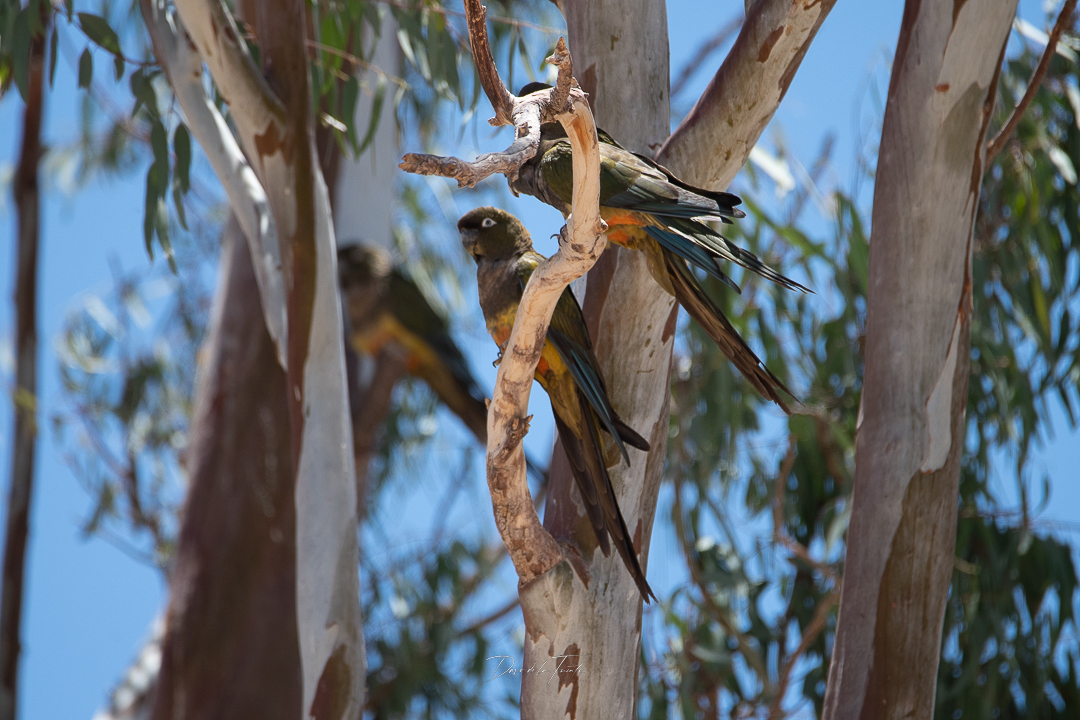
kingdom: Animalia
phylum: Chordata
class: Aves
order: Psittaciformes
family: Psittacidae
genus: Cyanoliseus
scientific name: Cyanoliseus patagonus
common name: Burrowing parrot
